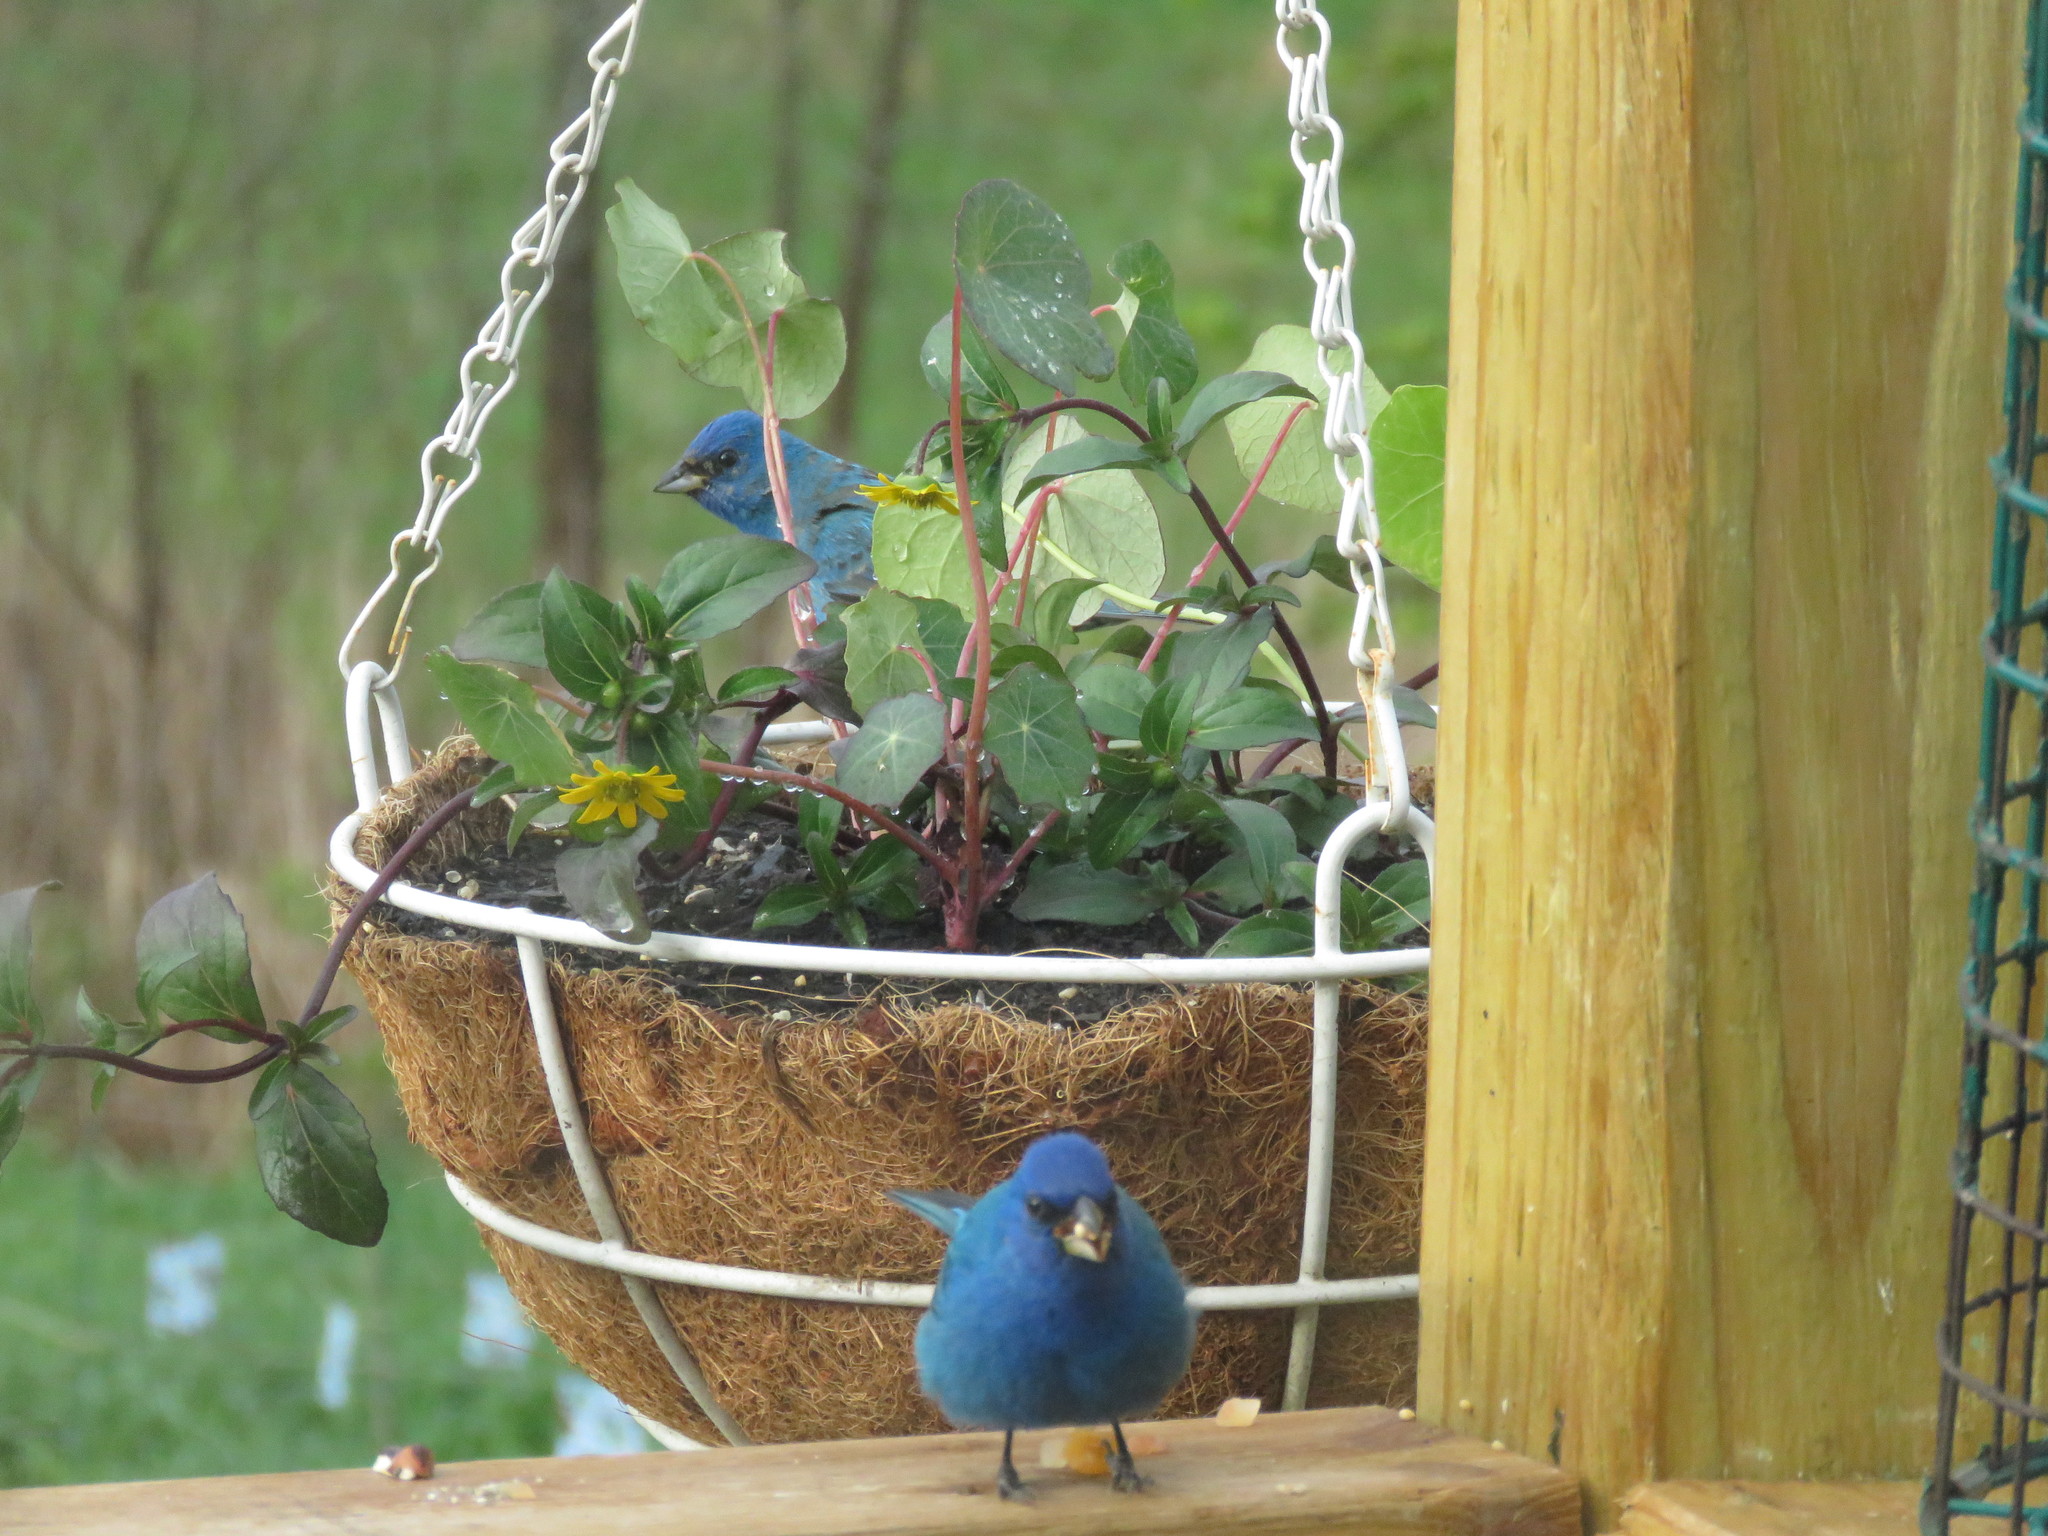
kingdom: Animalia
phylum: Chordata
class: Aves
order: Passeriformes
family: Cardinalidae
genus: Passerina
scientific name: Passerina cyanea
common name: Indigo bunting
